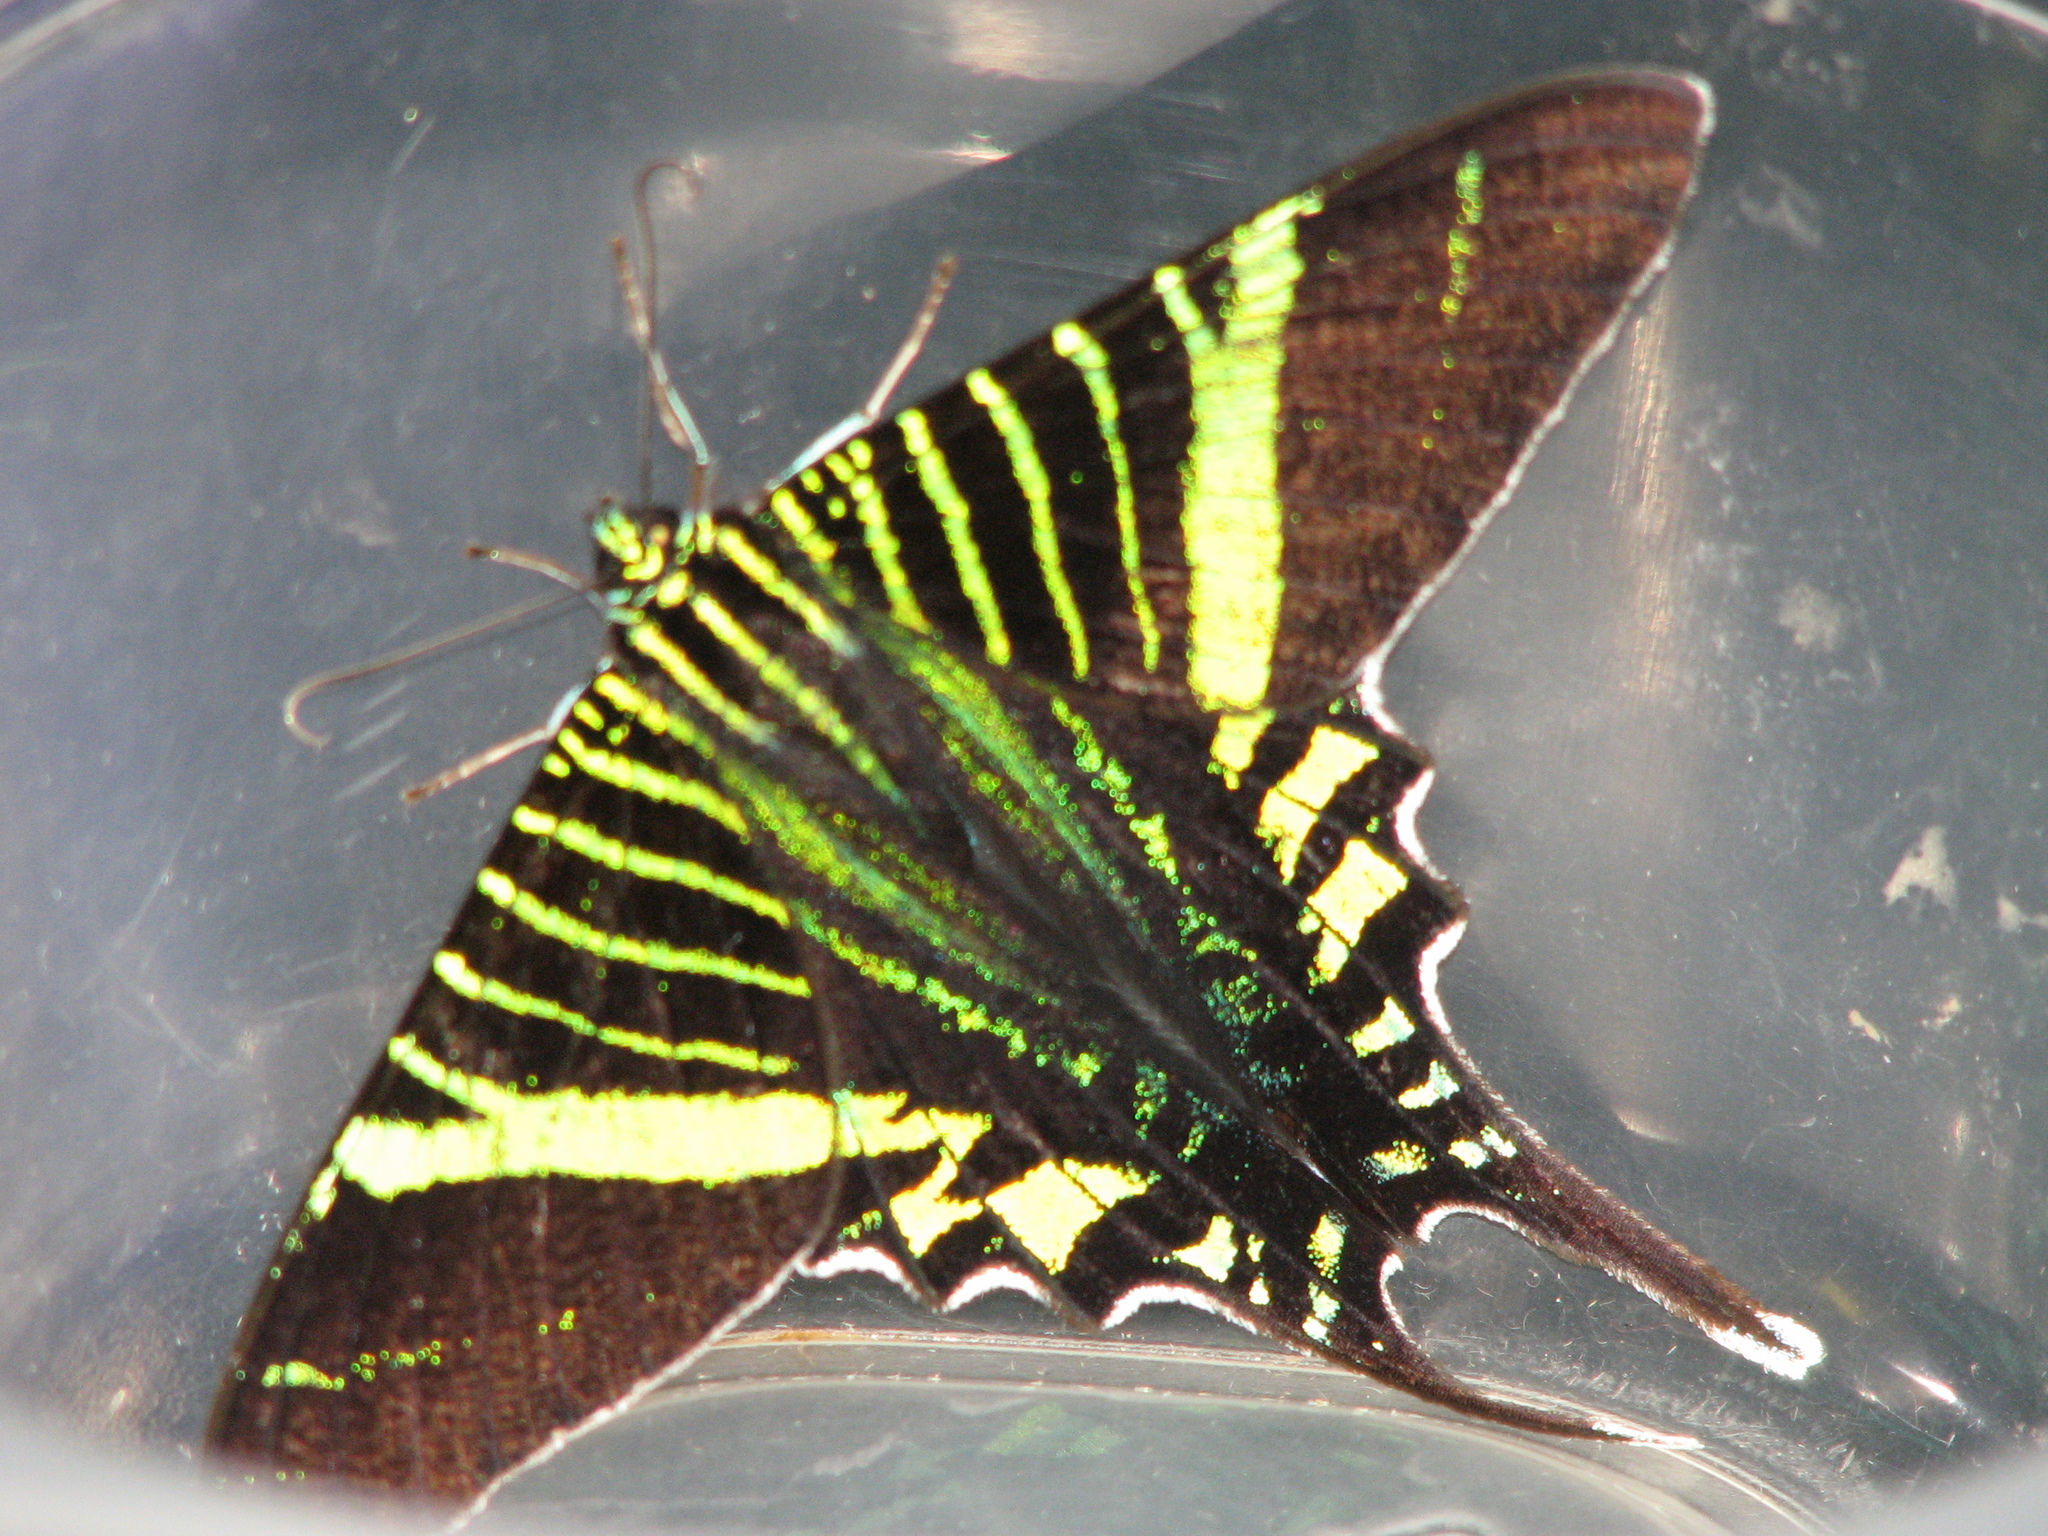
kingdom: Animalia
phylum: Arthropoda
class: Insecta
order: Lepidoptera
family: Uraniidae
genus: Urania
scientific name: Urania fulgens
